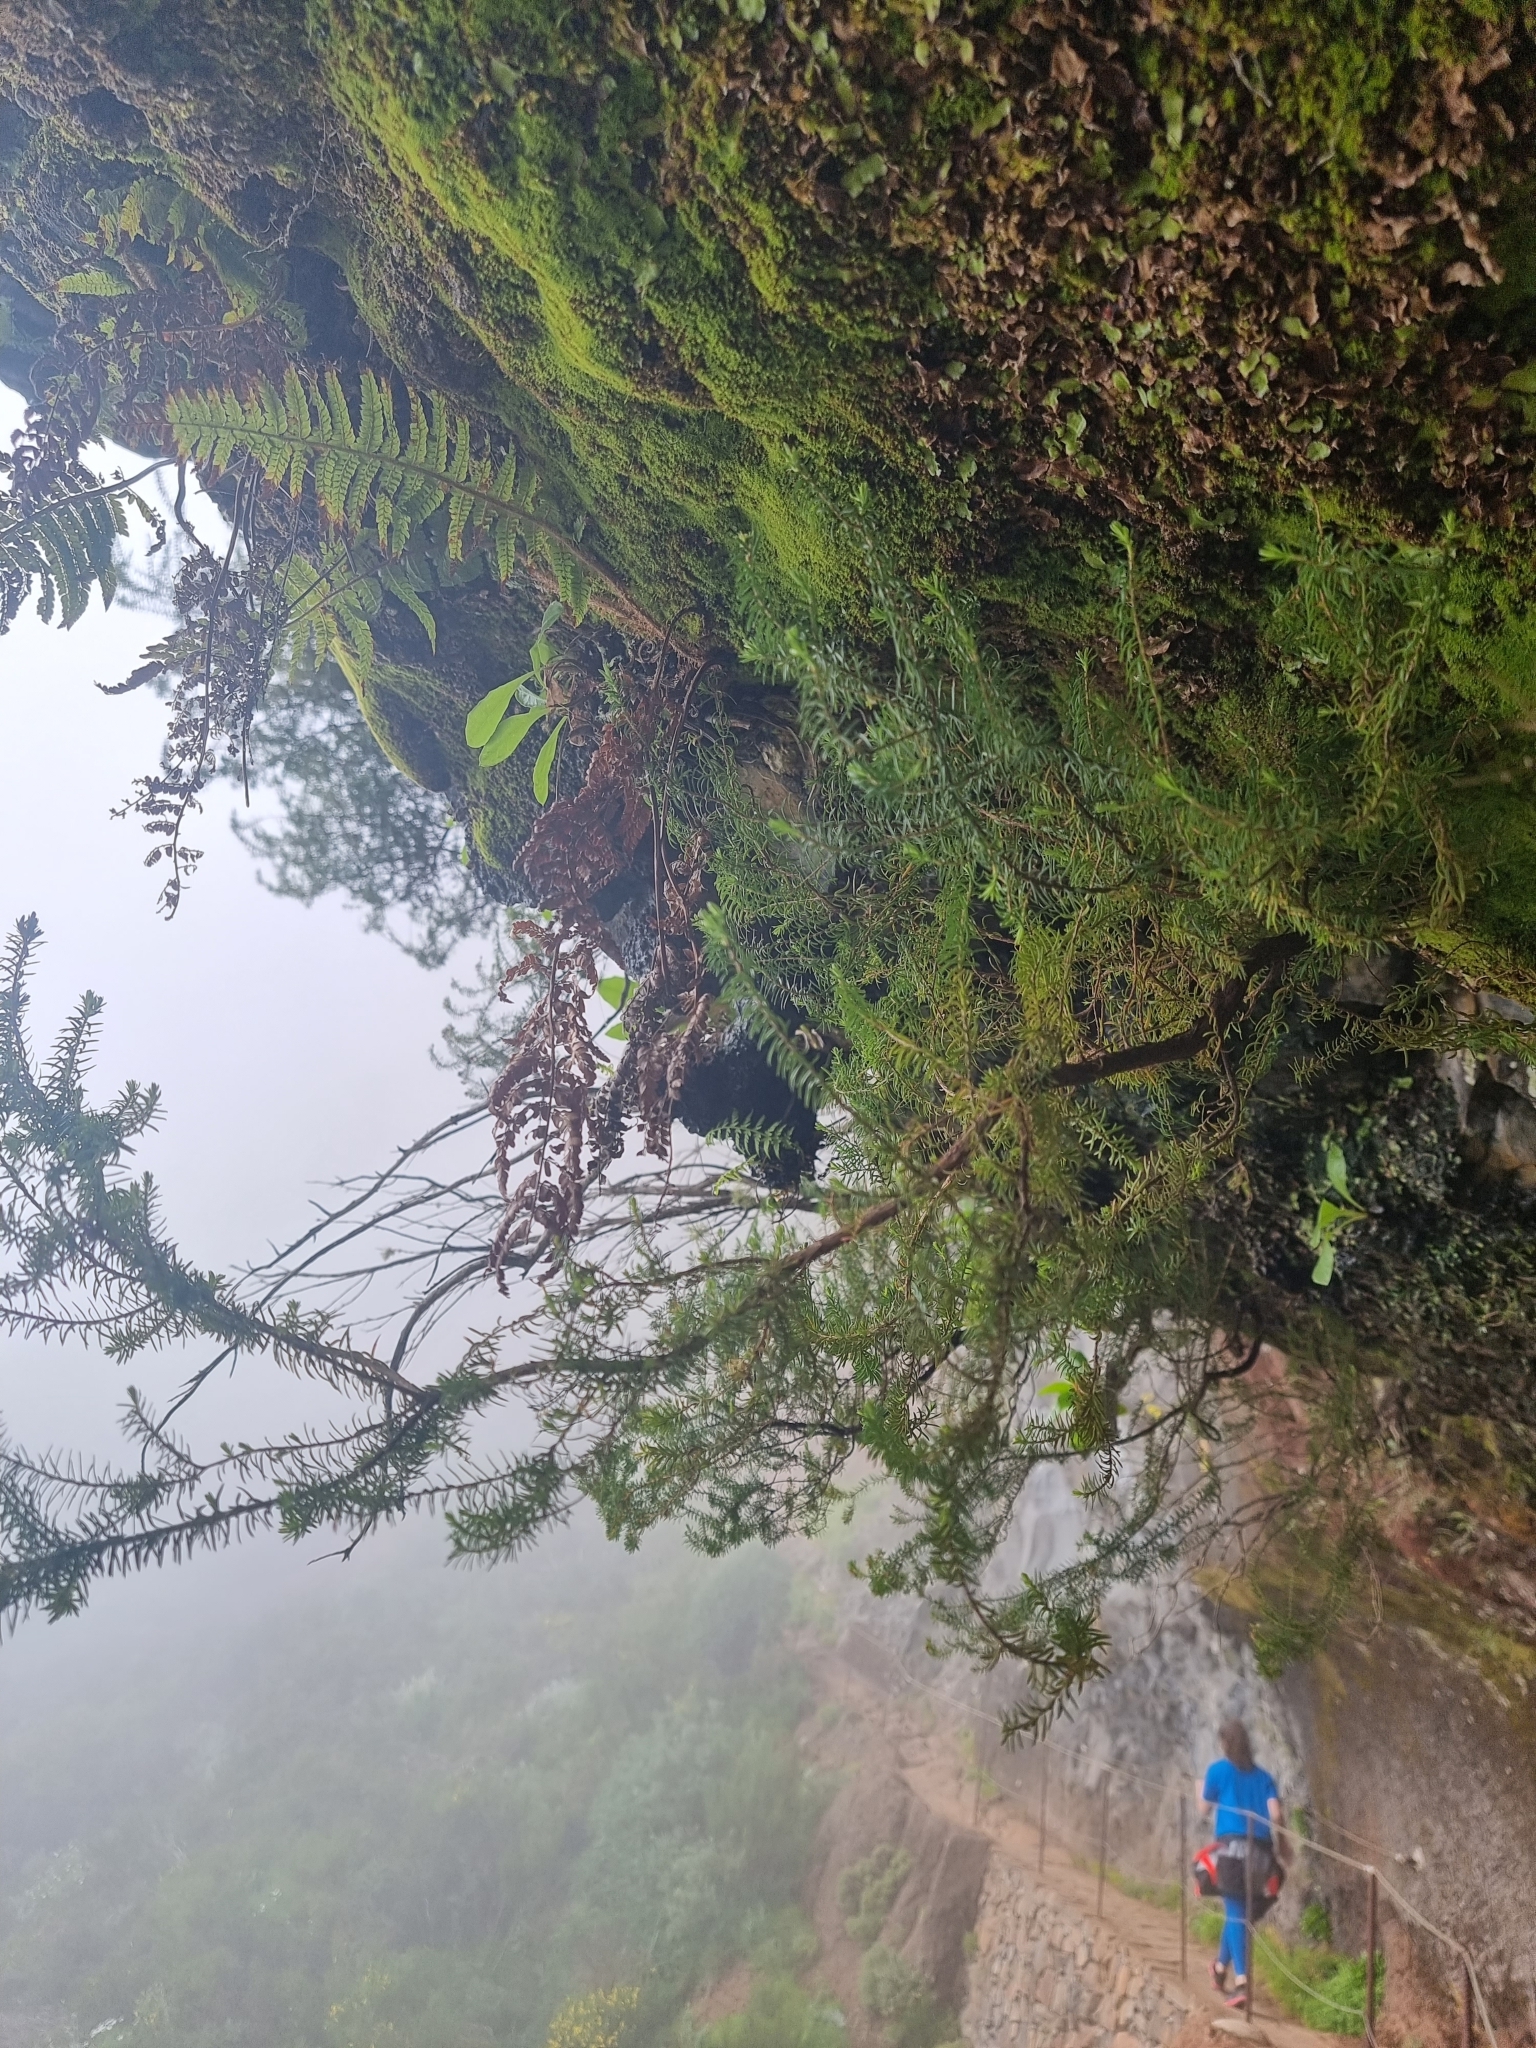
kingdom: Plantae
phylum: Tracheophyta
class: Magnoliopsida
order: Ericales
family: Ericaceae
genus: Erica
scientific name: Erica platycodon
